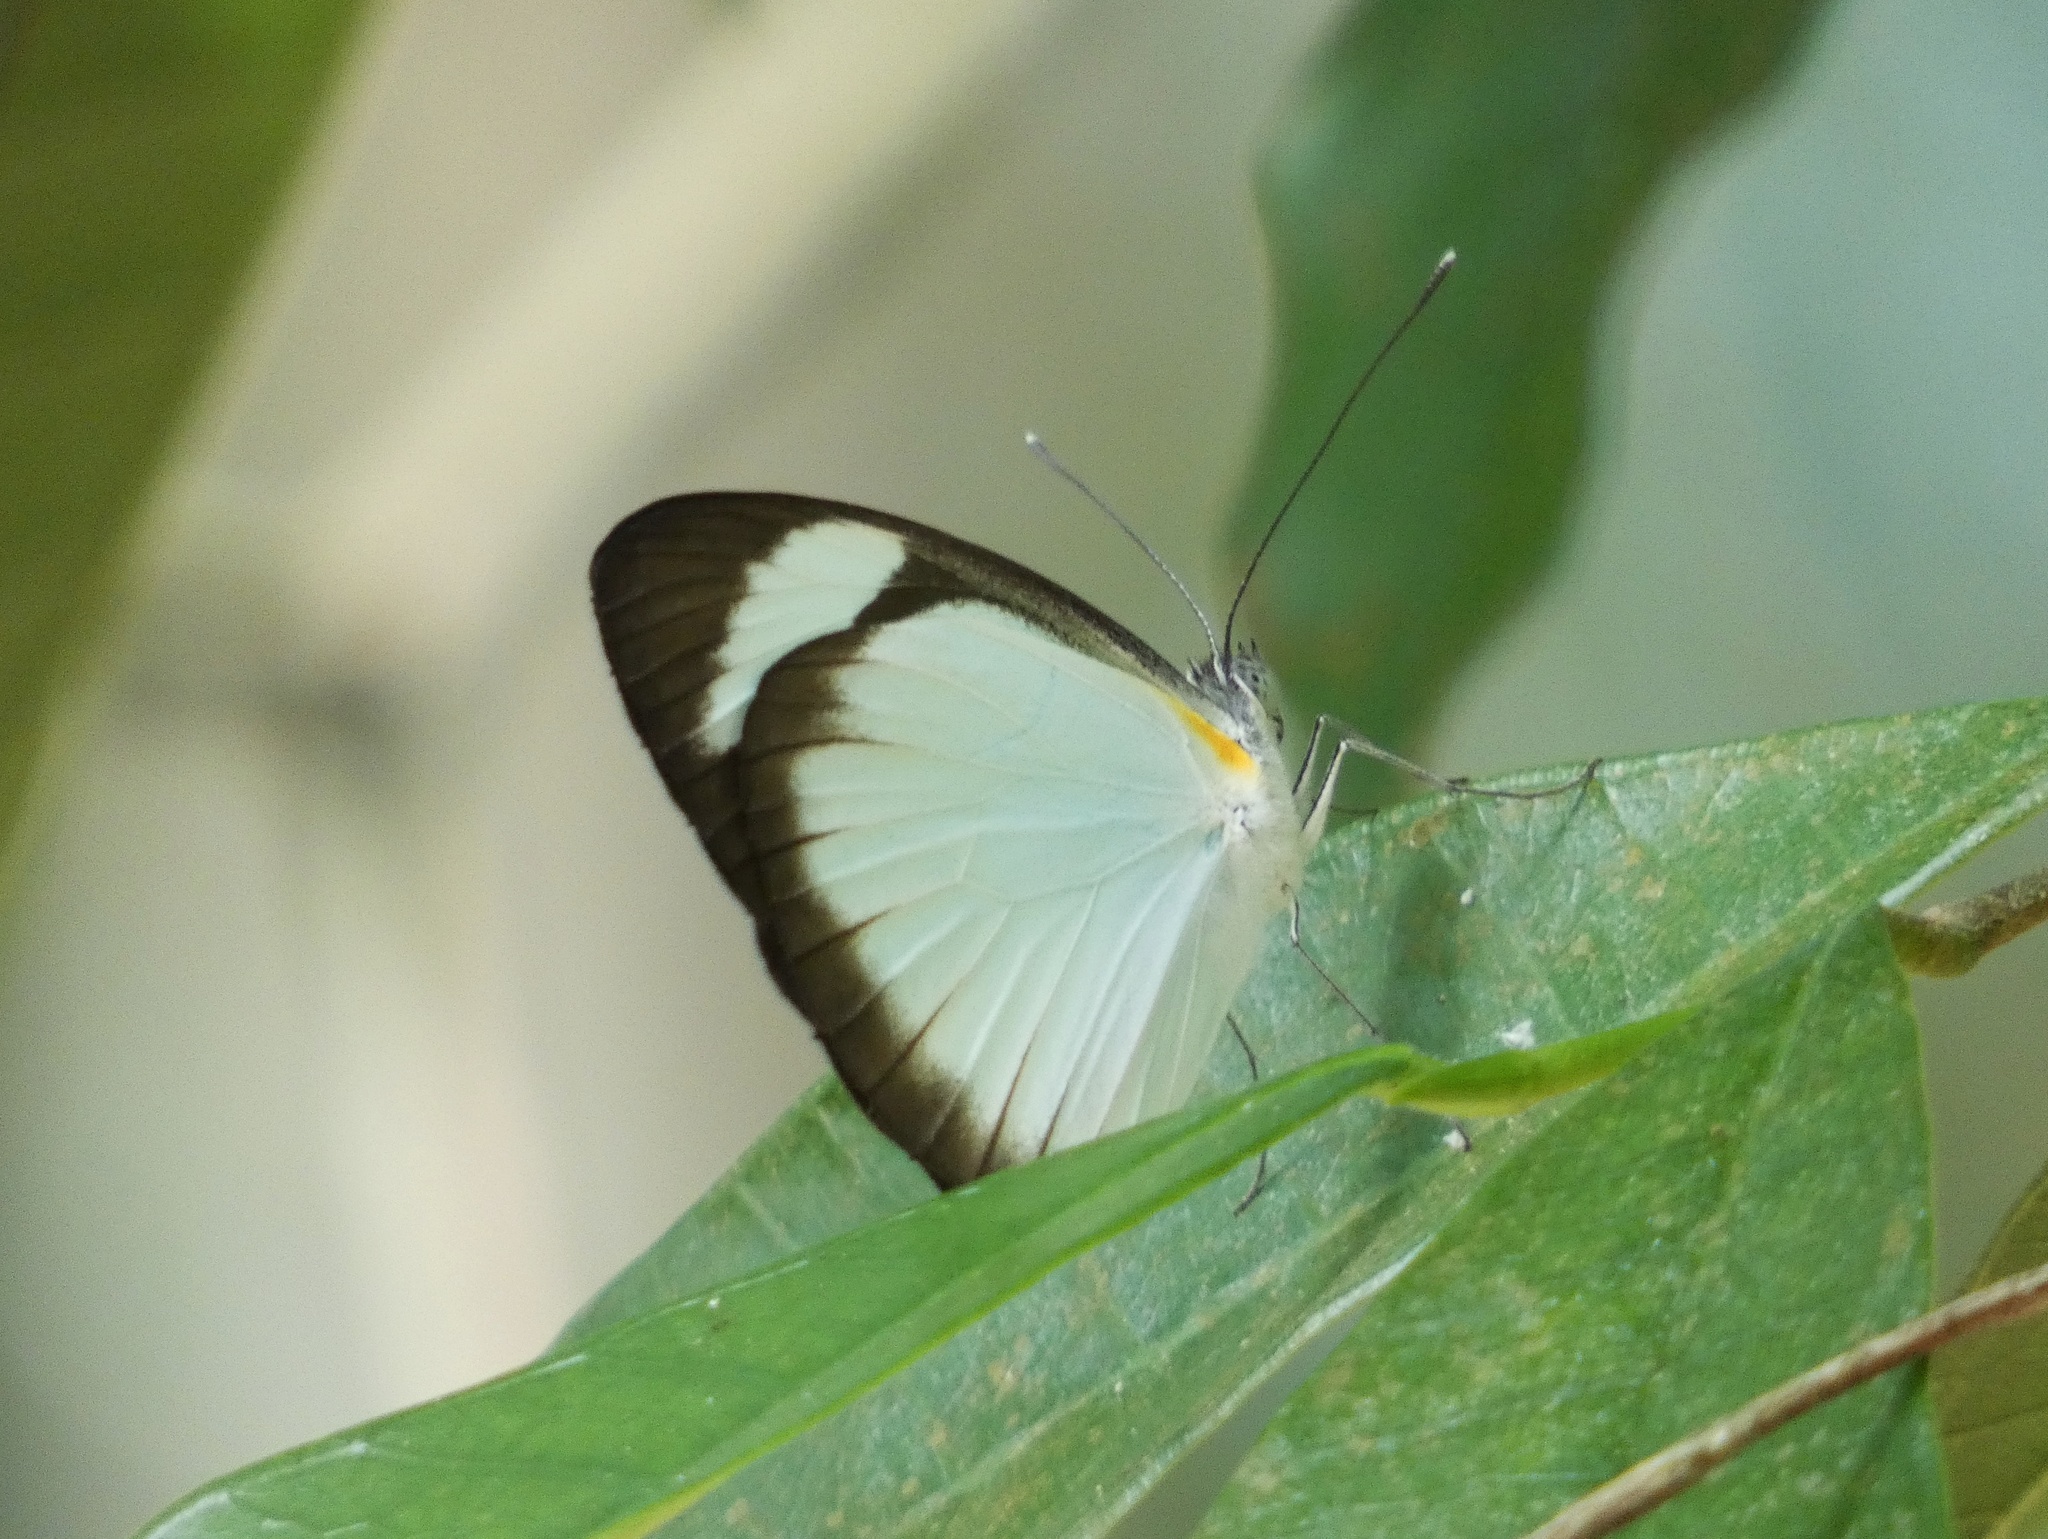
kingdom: Animalia
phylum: Arthropoda
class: Insecta
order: Lepidoptera
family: Pieridae
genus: Itaballia
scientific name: Itaballia demophile
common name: Cross-barred white
